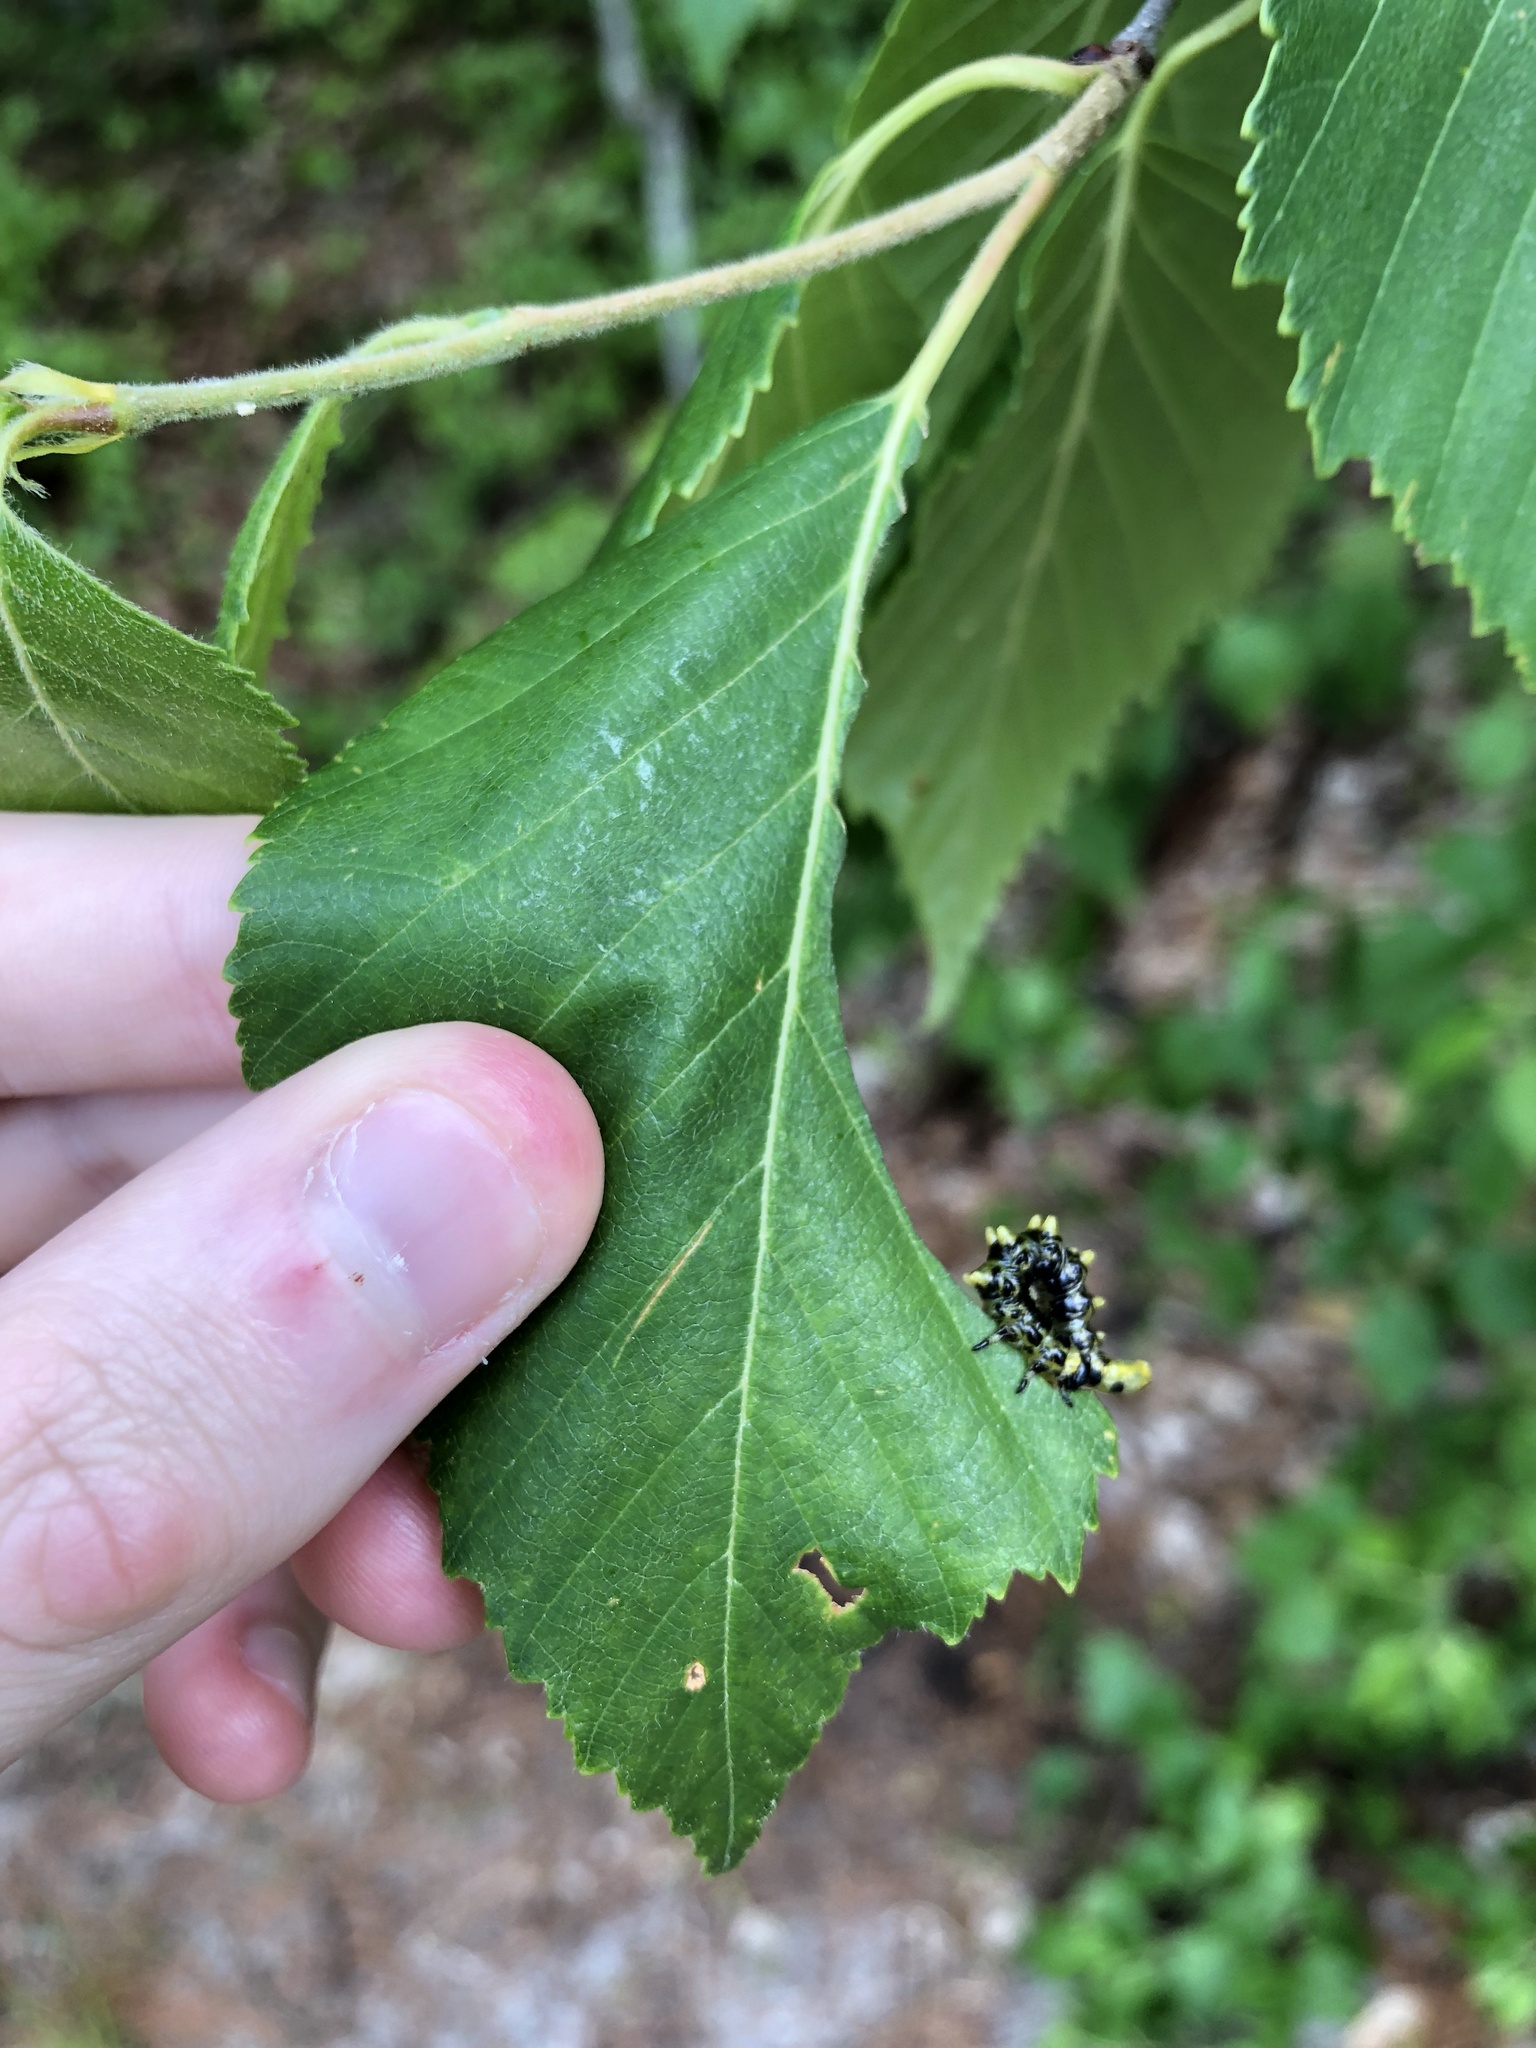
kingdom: Animalia
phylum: Arthropoda
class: Insecta
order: Hymenoptera
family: Tenthredinidae
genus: Nematus
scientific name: Nematus
